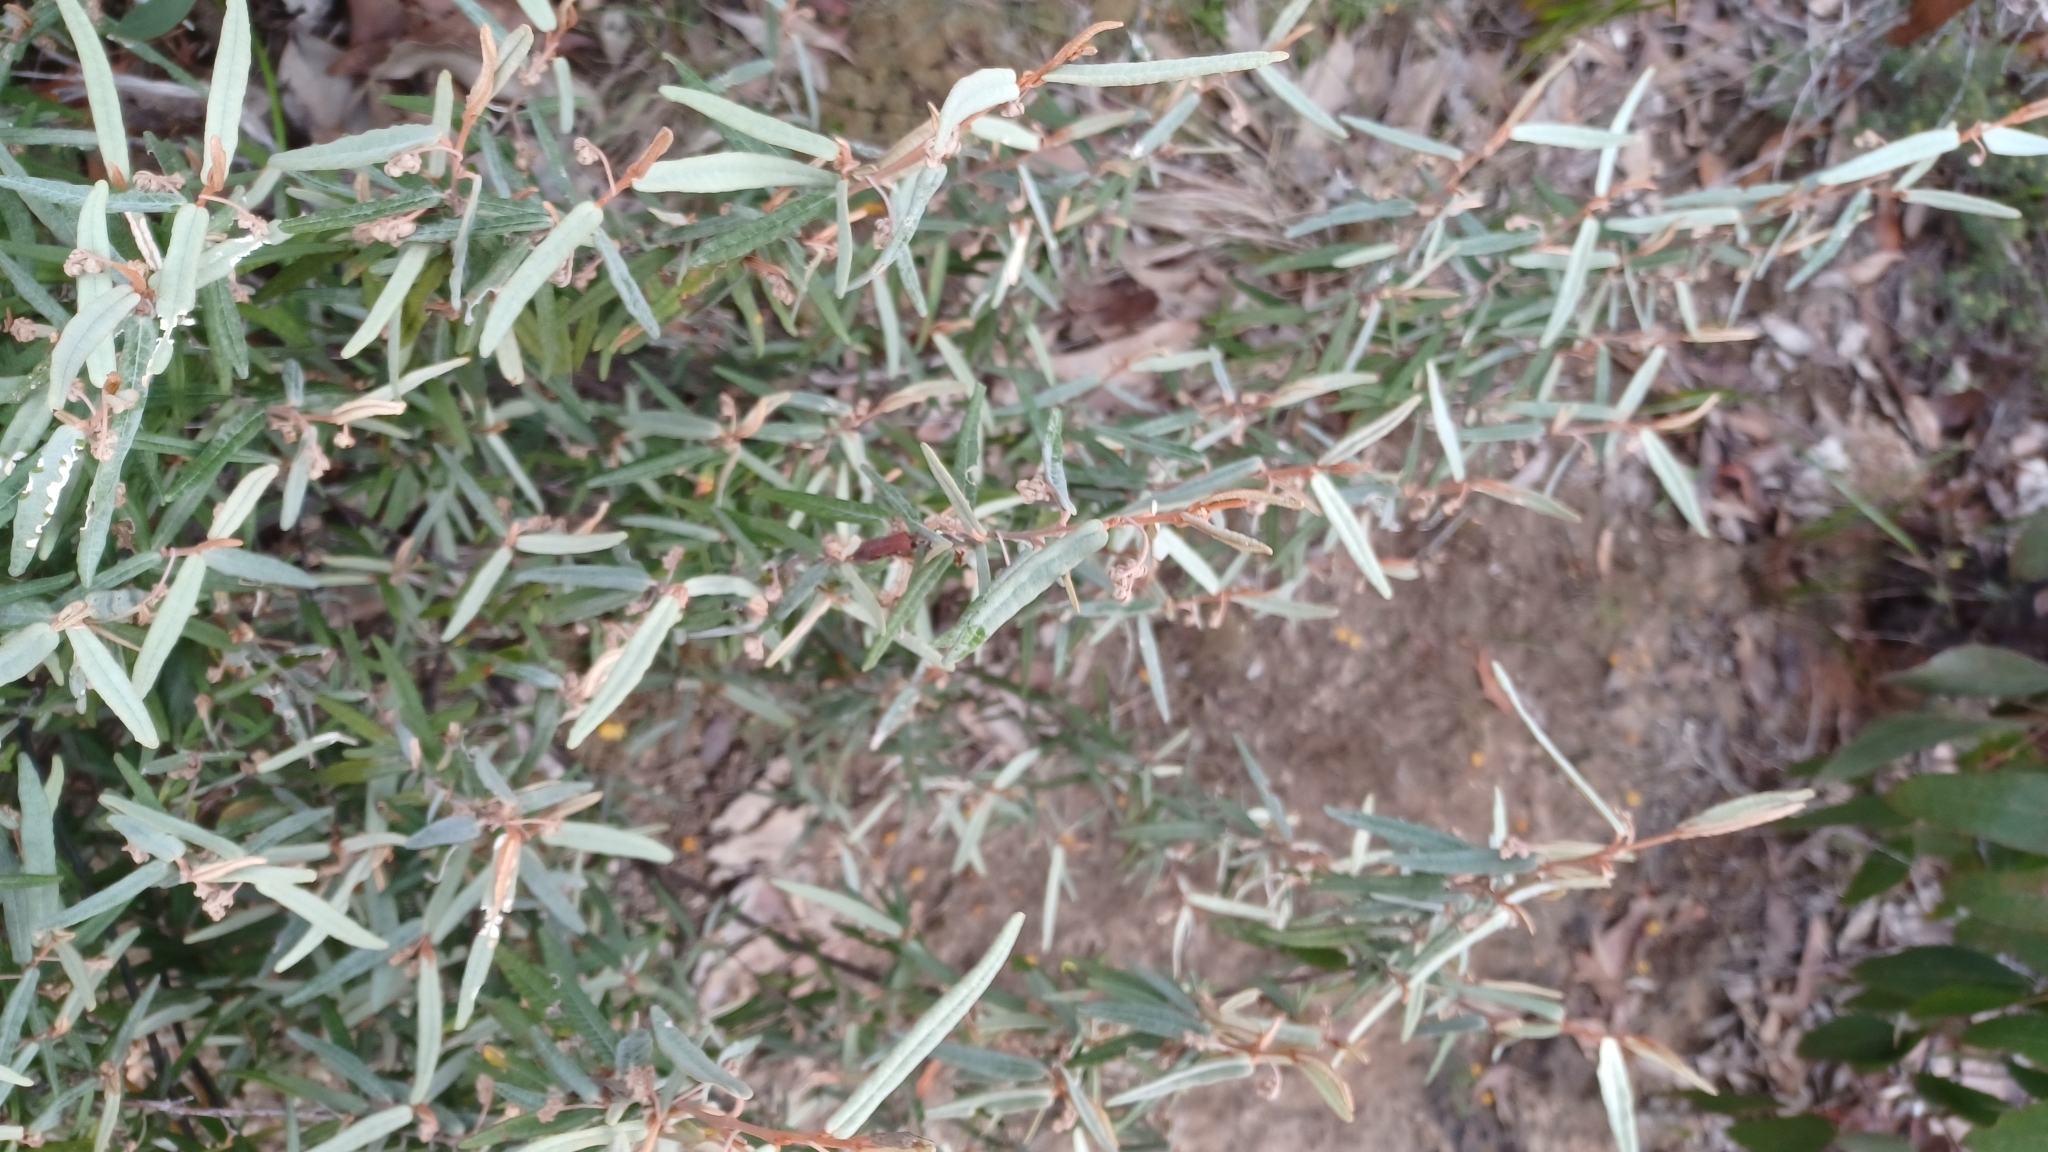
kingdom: Plantae
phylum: Tracheophyta
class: Magnoliopsida
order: Malvales
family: Malvaceae
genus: Lasiopetalum
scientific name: Lasiopetalum baueri
